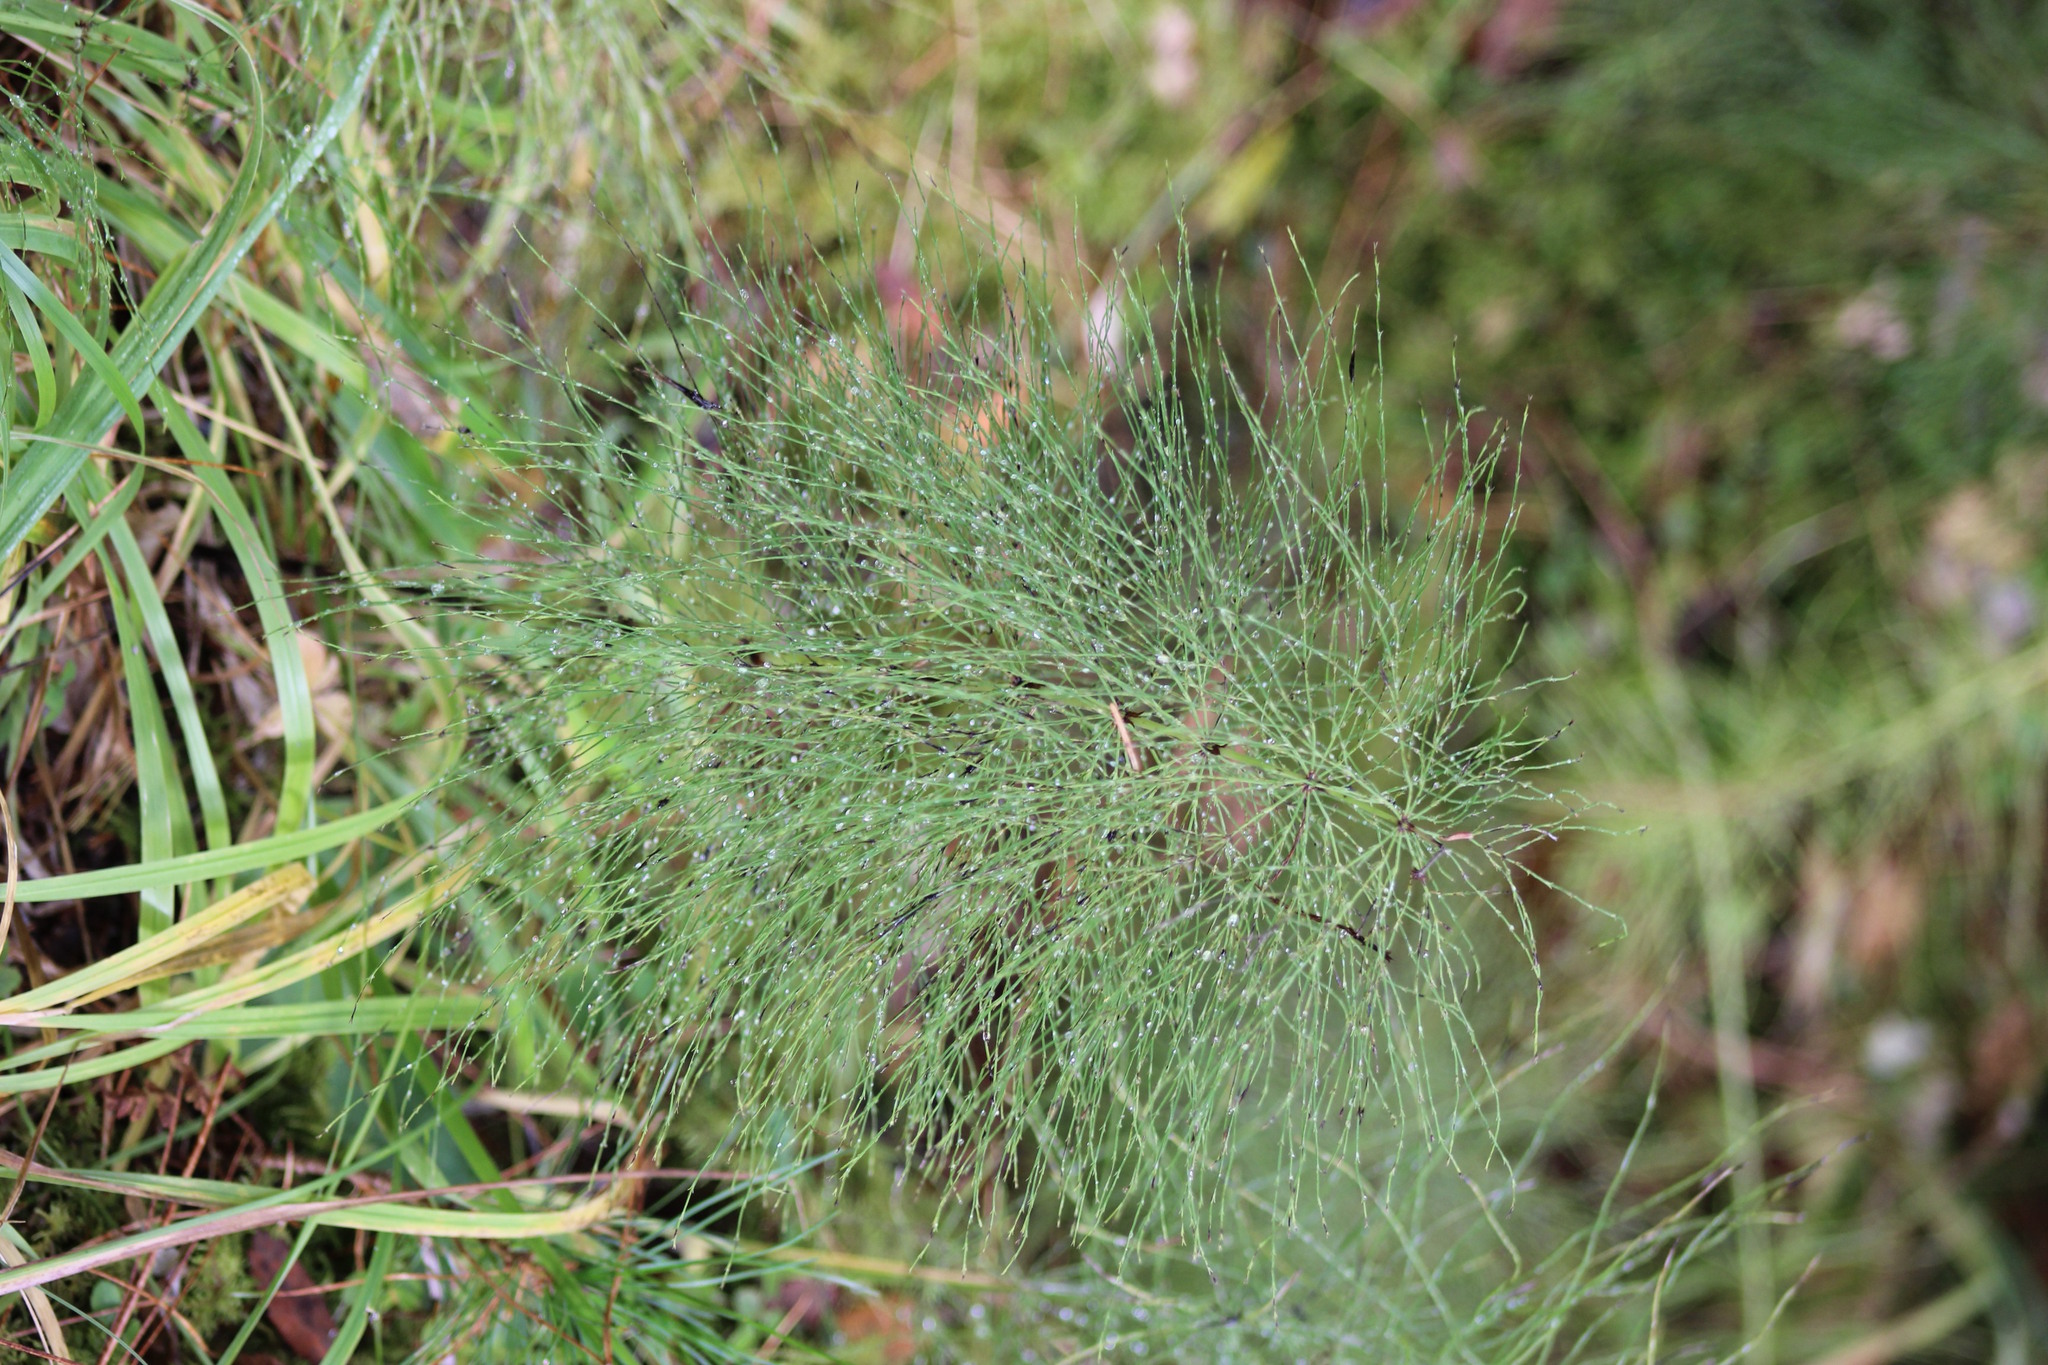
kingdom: Plantae
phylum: Tracheophyta
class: Polypodiopsida
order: Equisetales
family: Equisetaceae
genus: Equisetum
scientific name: Equisetum sylvaticum
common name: Wood horsetail
